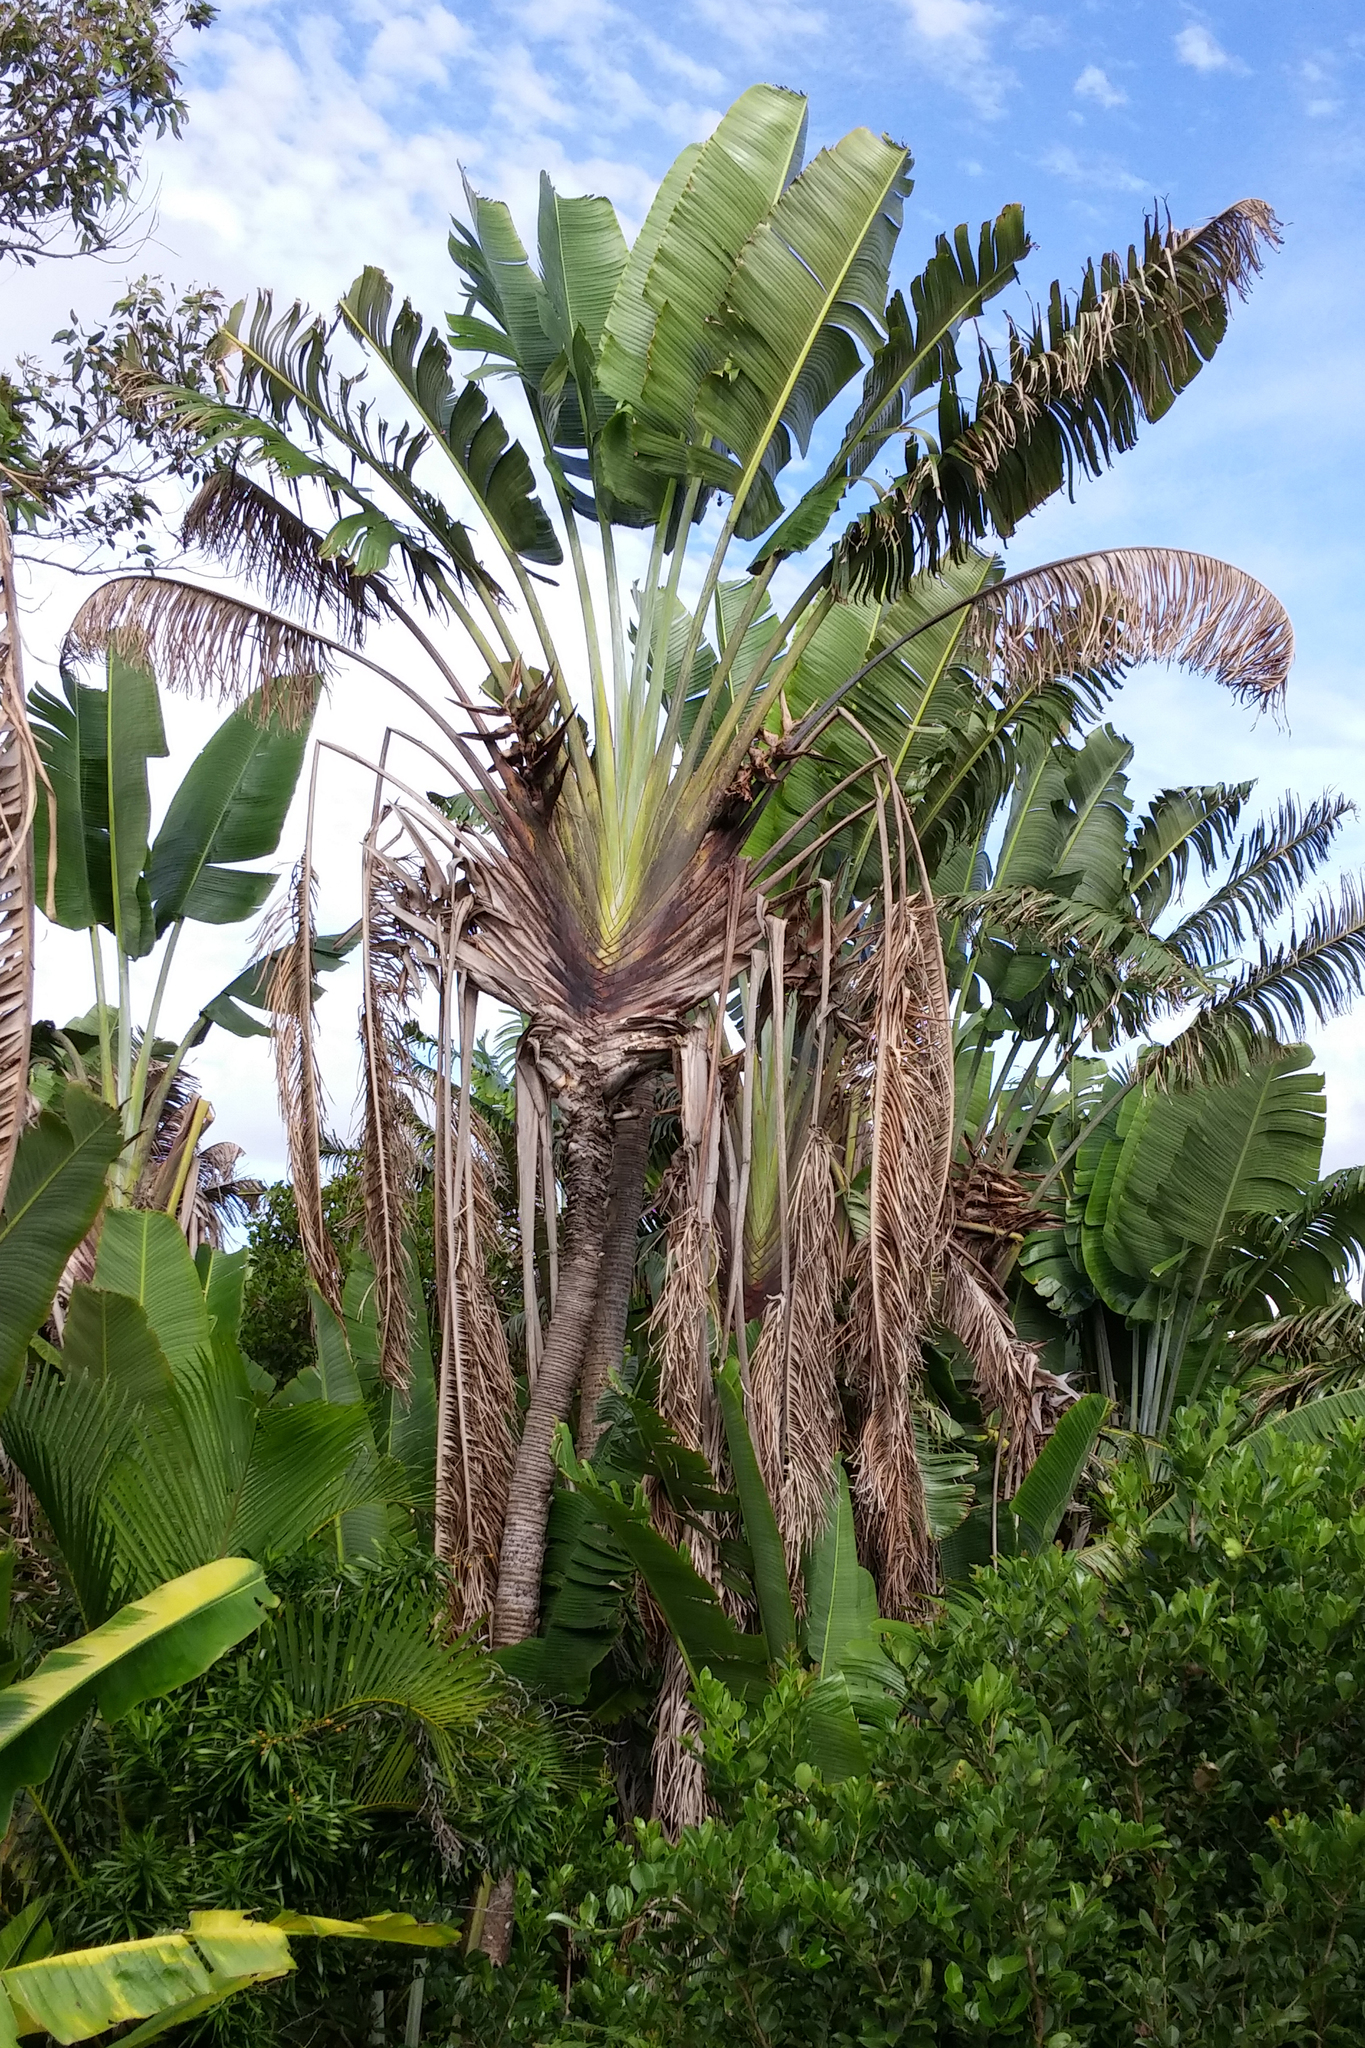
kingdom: Plantae
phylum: Tracheophyta
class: Liliopsida
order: Zingiberales
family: Strelitziaceae
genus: Ravenala
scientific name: Ravenala madagascariensis
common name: Traveler's-palm
